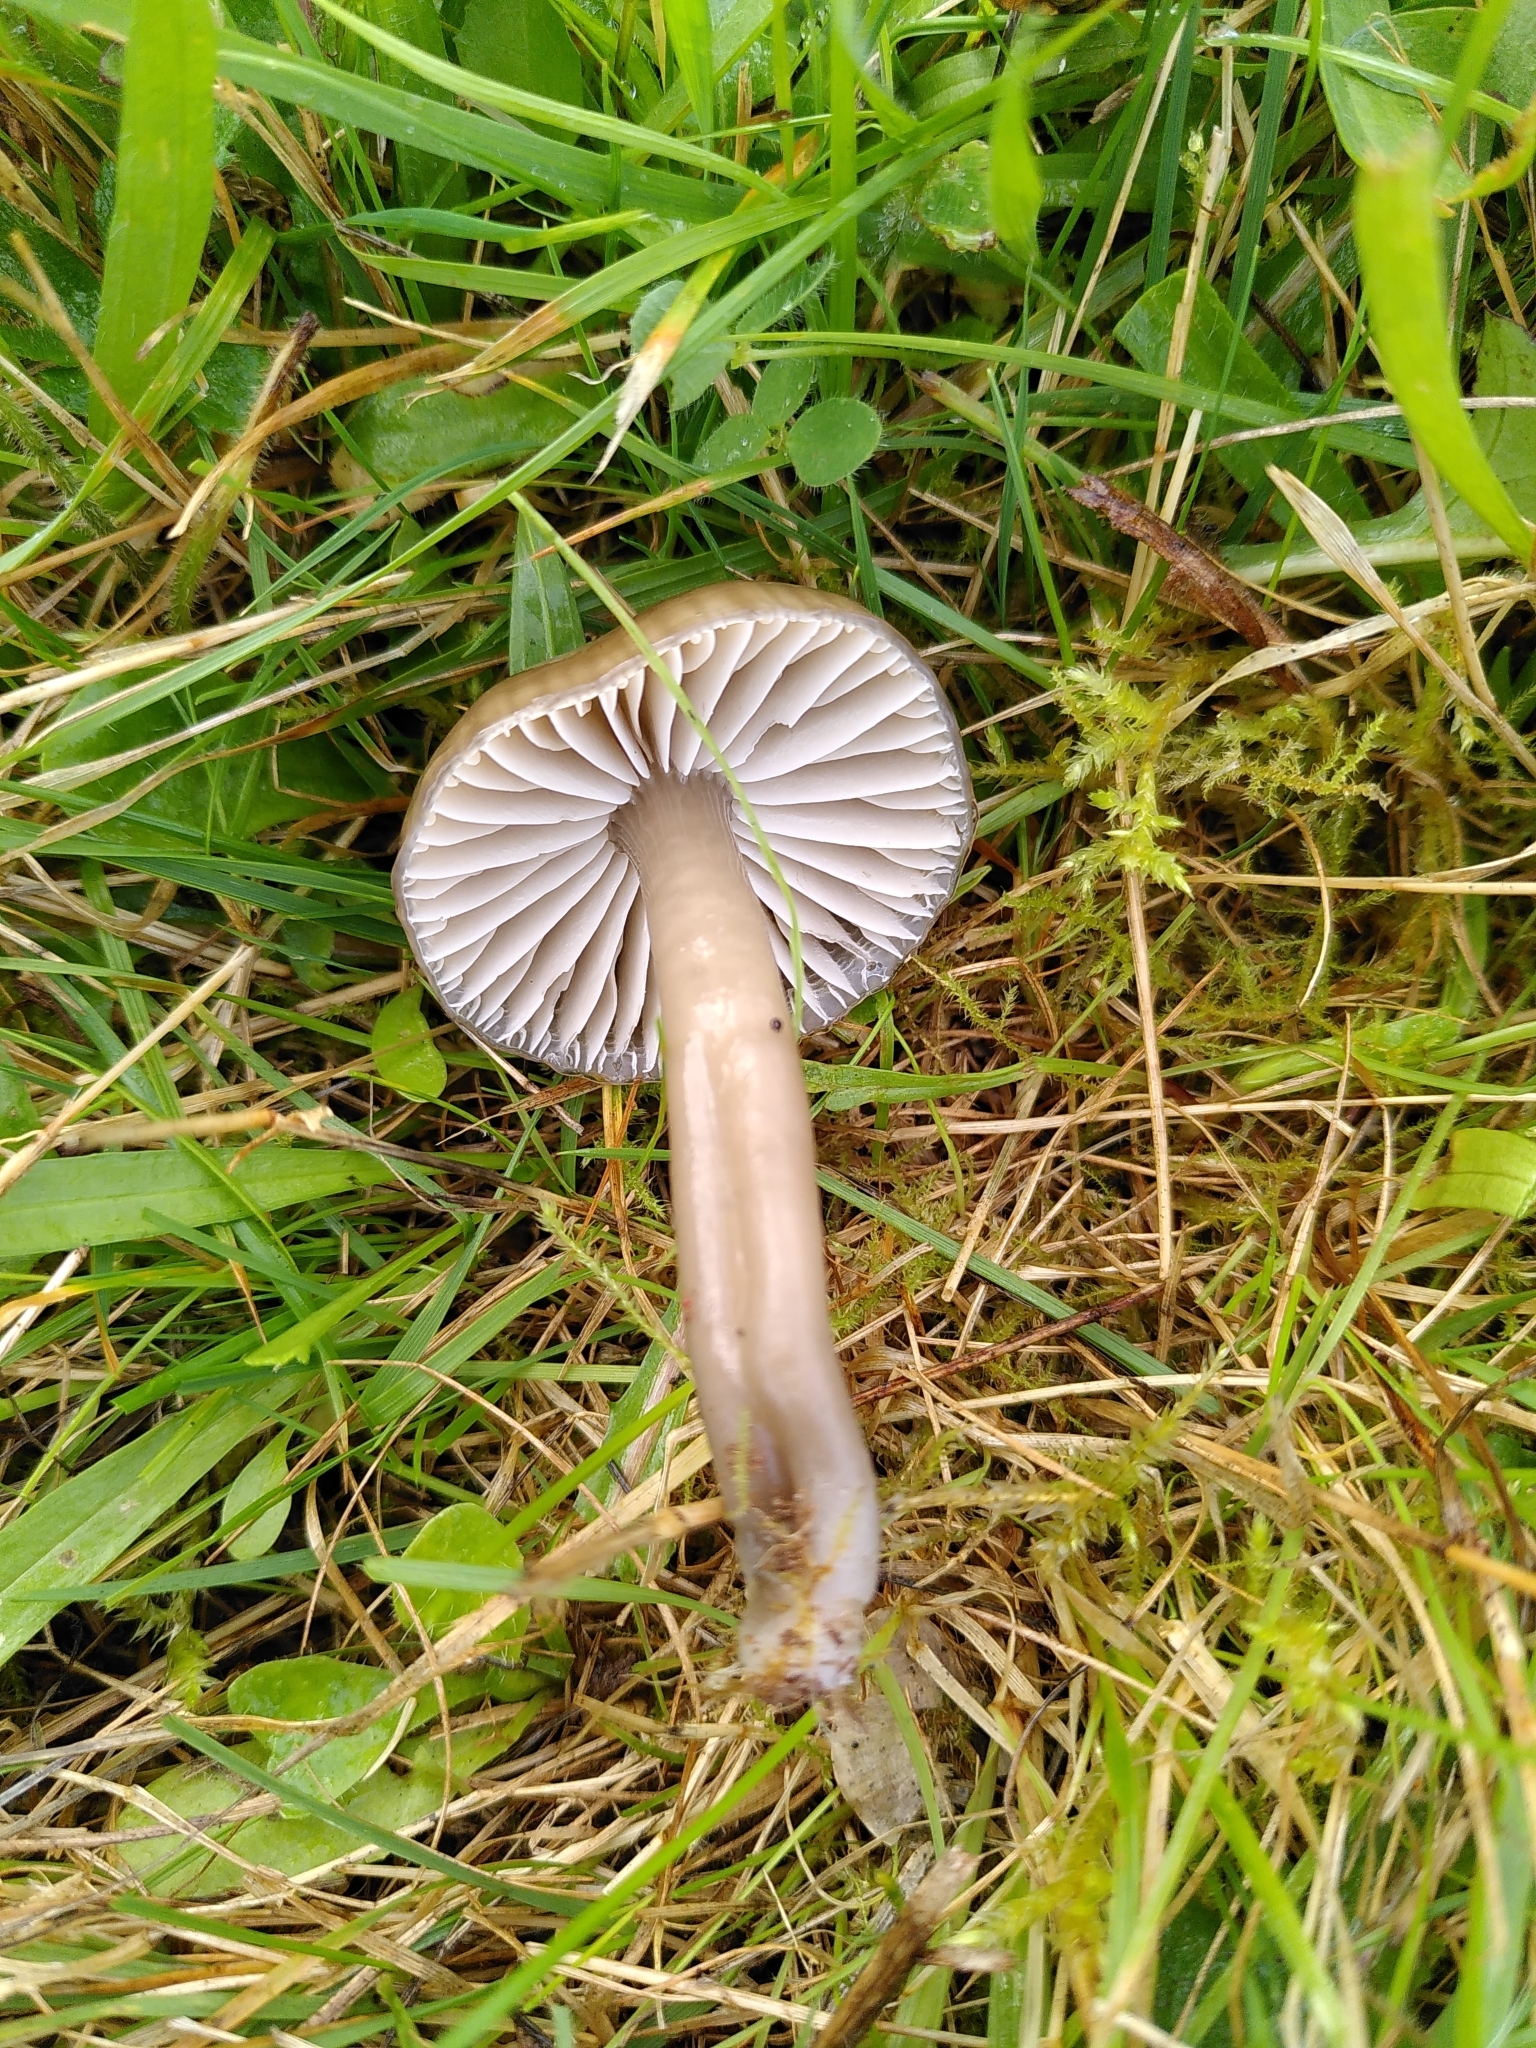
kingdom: Fungi
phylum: Basidiomycota
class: Agaricomycetes
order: Agaricales
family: Hygrophoraceae
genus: Gliophorus
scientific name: Gliophorus irrigatus
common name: Slimy waxcap
